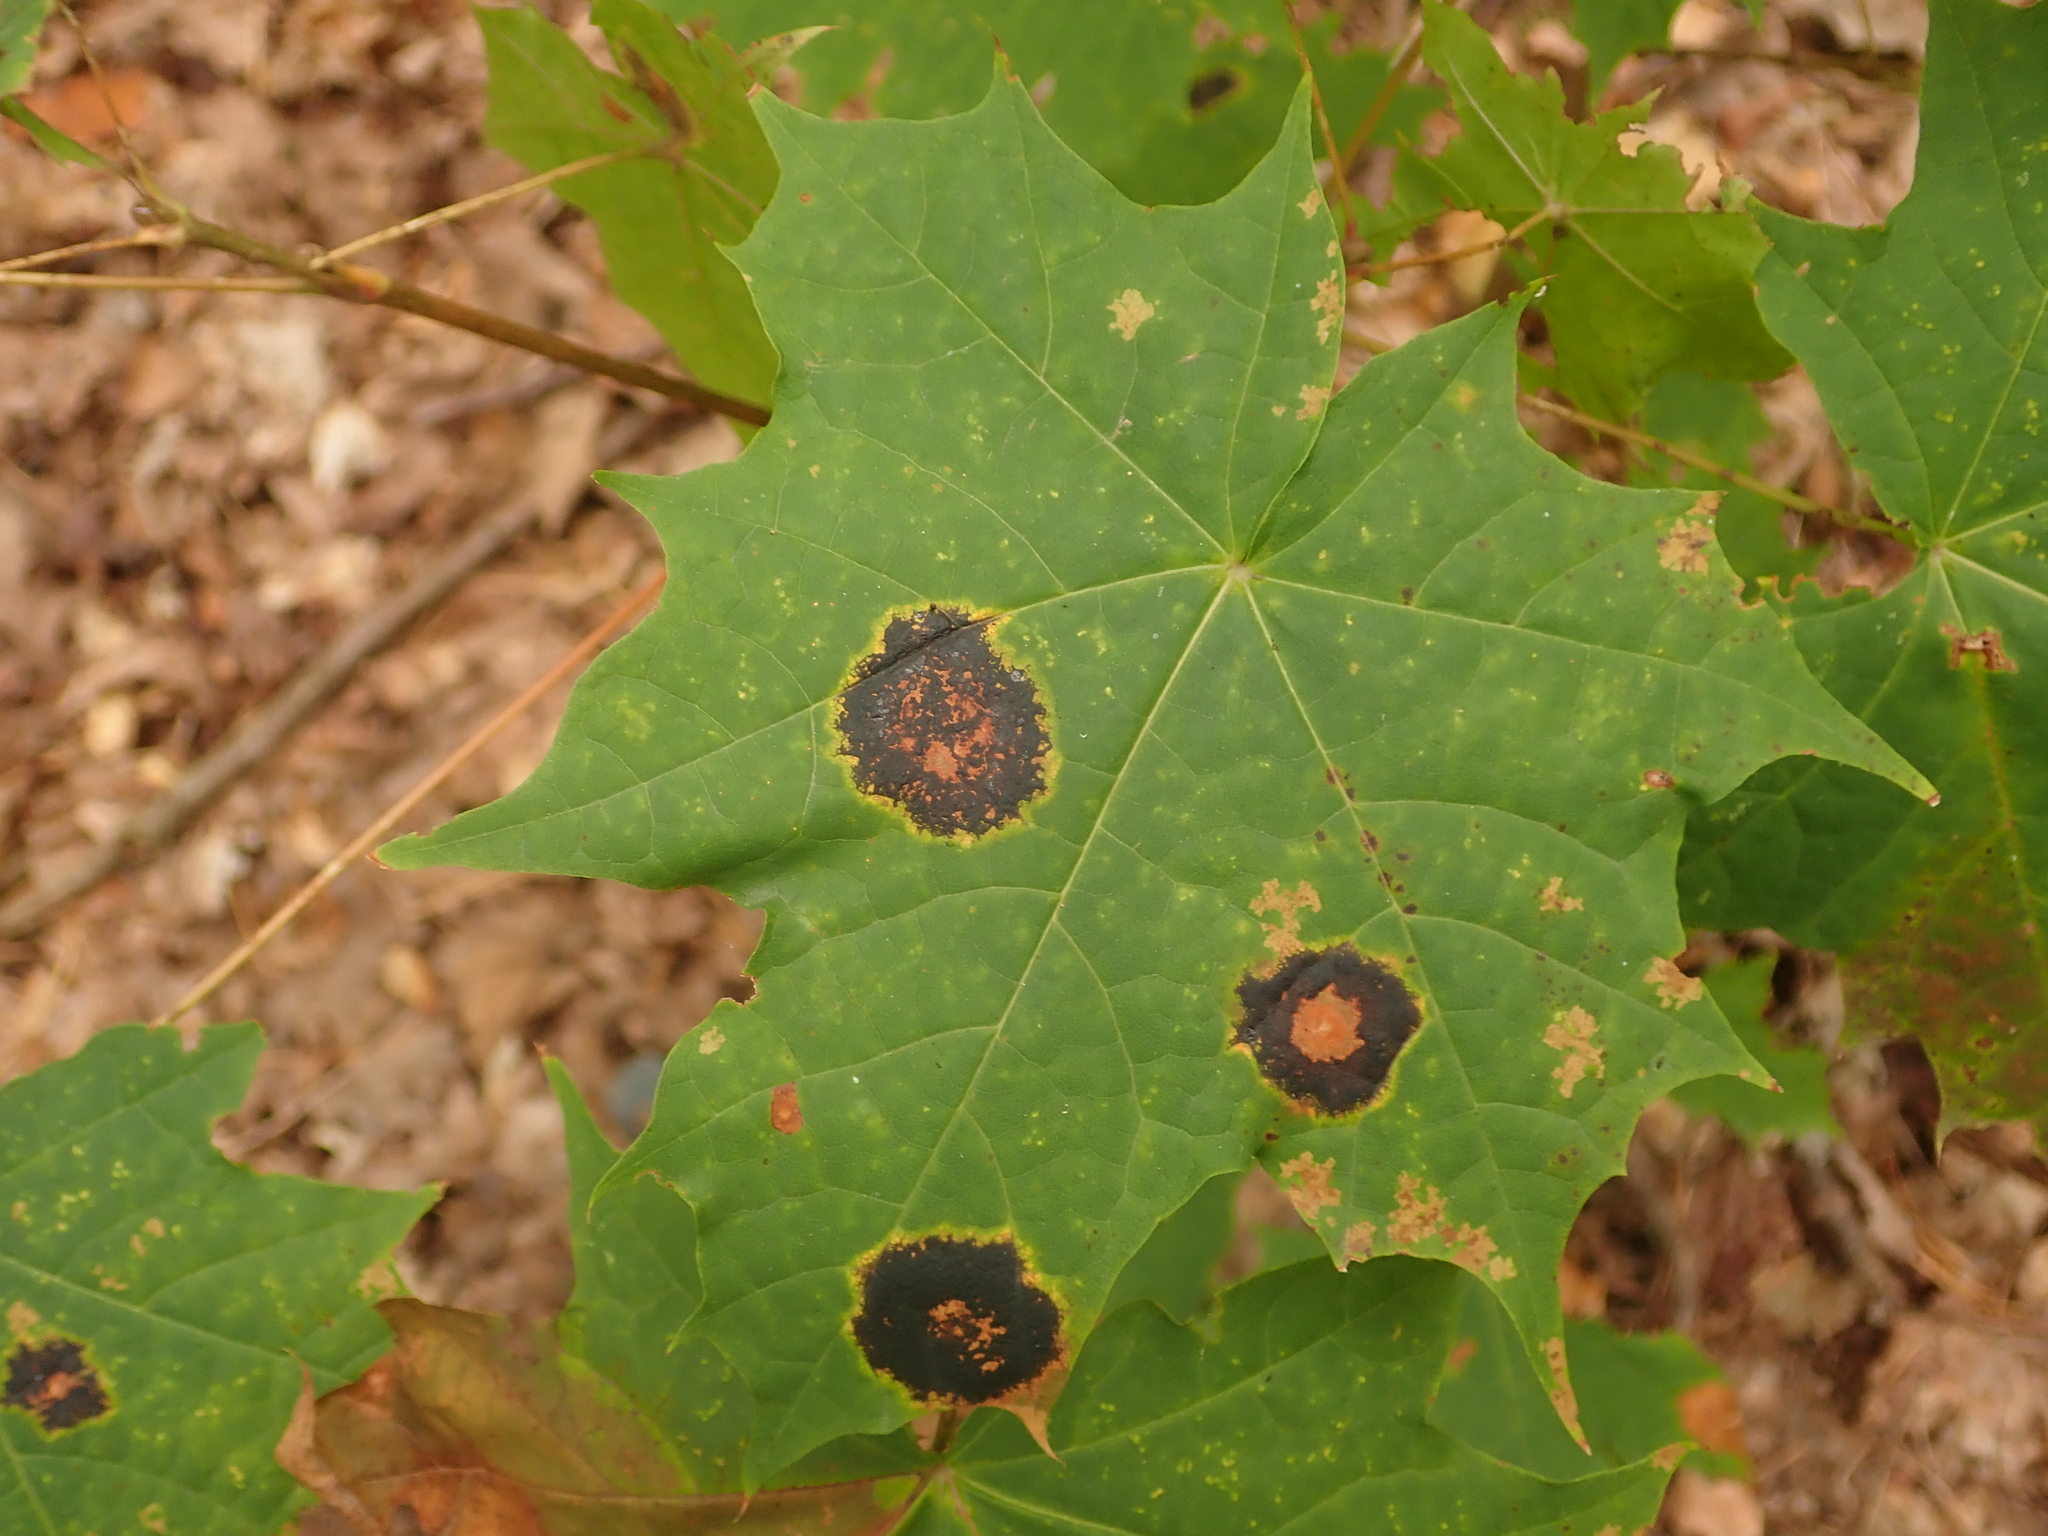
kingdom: Plantae
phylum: Tracheophyta
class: Magnoliopsida
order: Sapindales
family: Sapindaceae
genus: Acer
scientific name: Acer platanoides
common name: Norway maple
